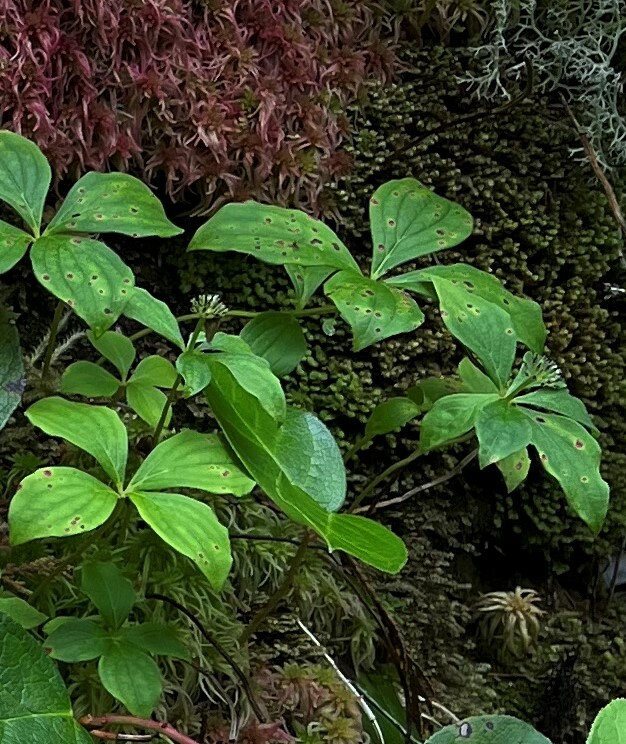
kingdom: Plantae
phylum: Tracheophyta
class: Magnoliopsida
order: Cornales
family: Cornaceae
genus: Cornus
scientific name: Cornus unalaschkensis
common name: Alaska bunchberry
